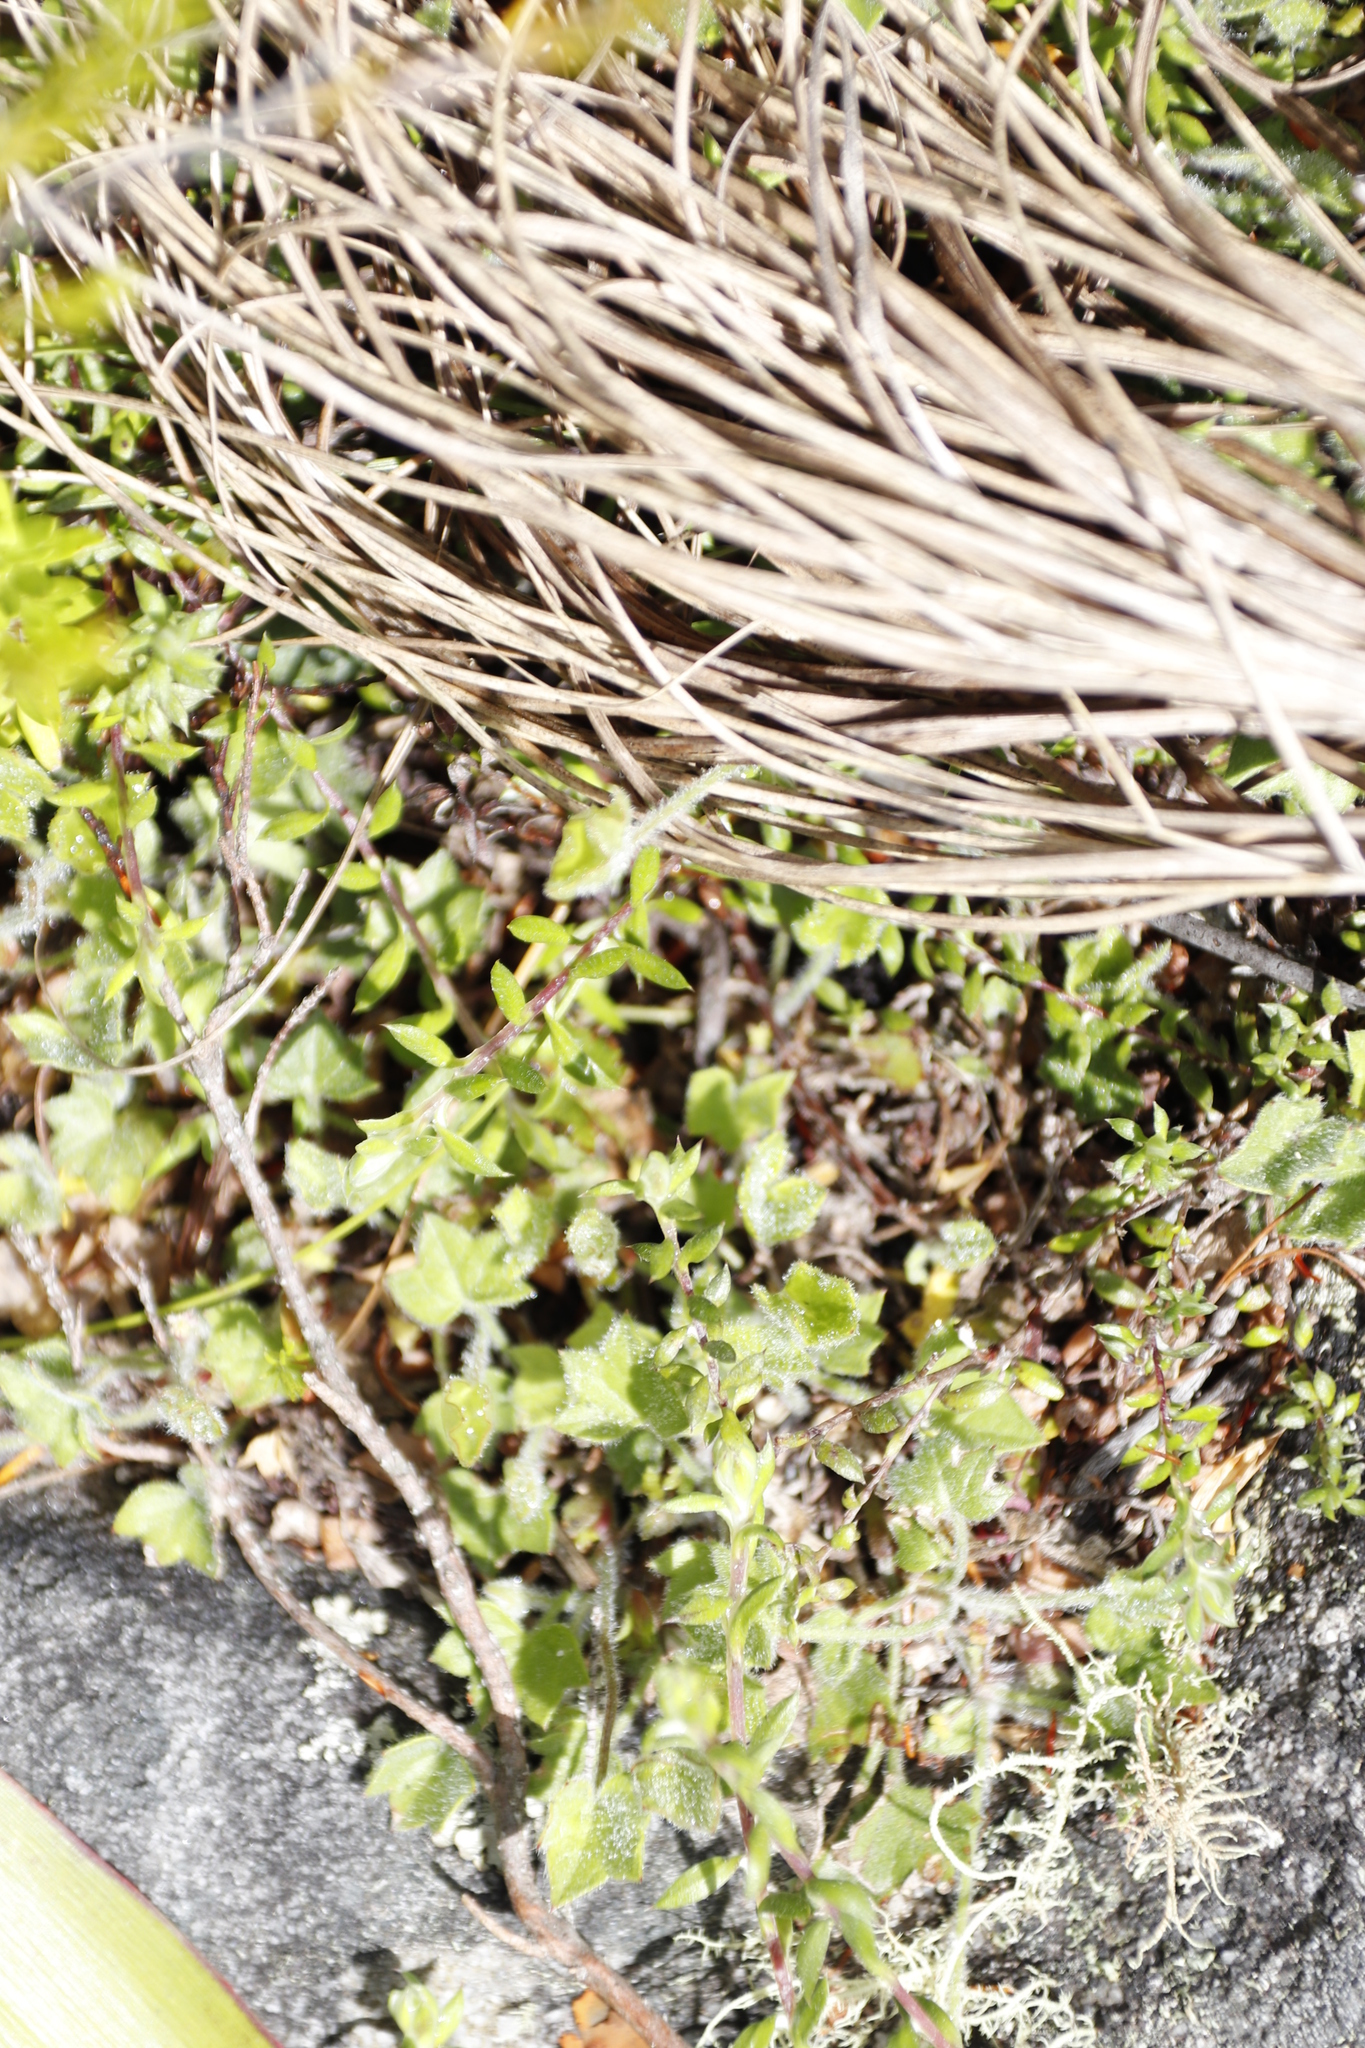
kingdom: Plantae
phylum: Tracheophyta
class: Magnoliopsida
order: Apiales
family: Apiaceae
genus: Centella
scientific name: Centella macroda
